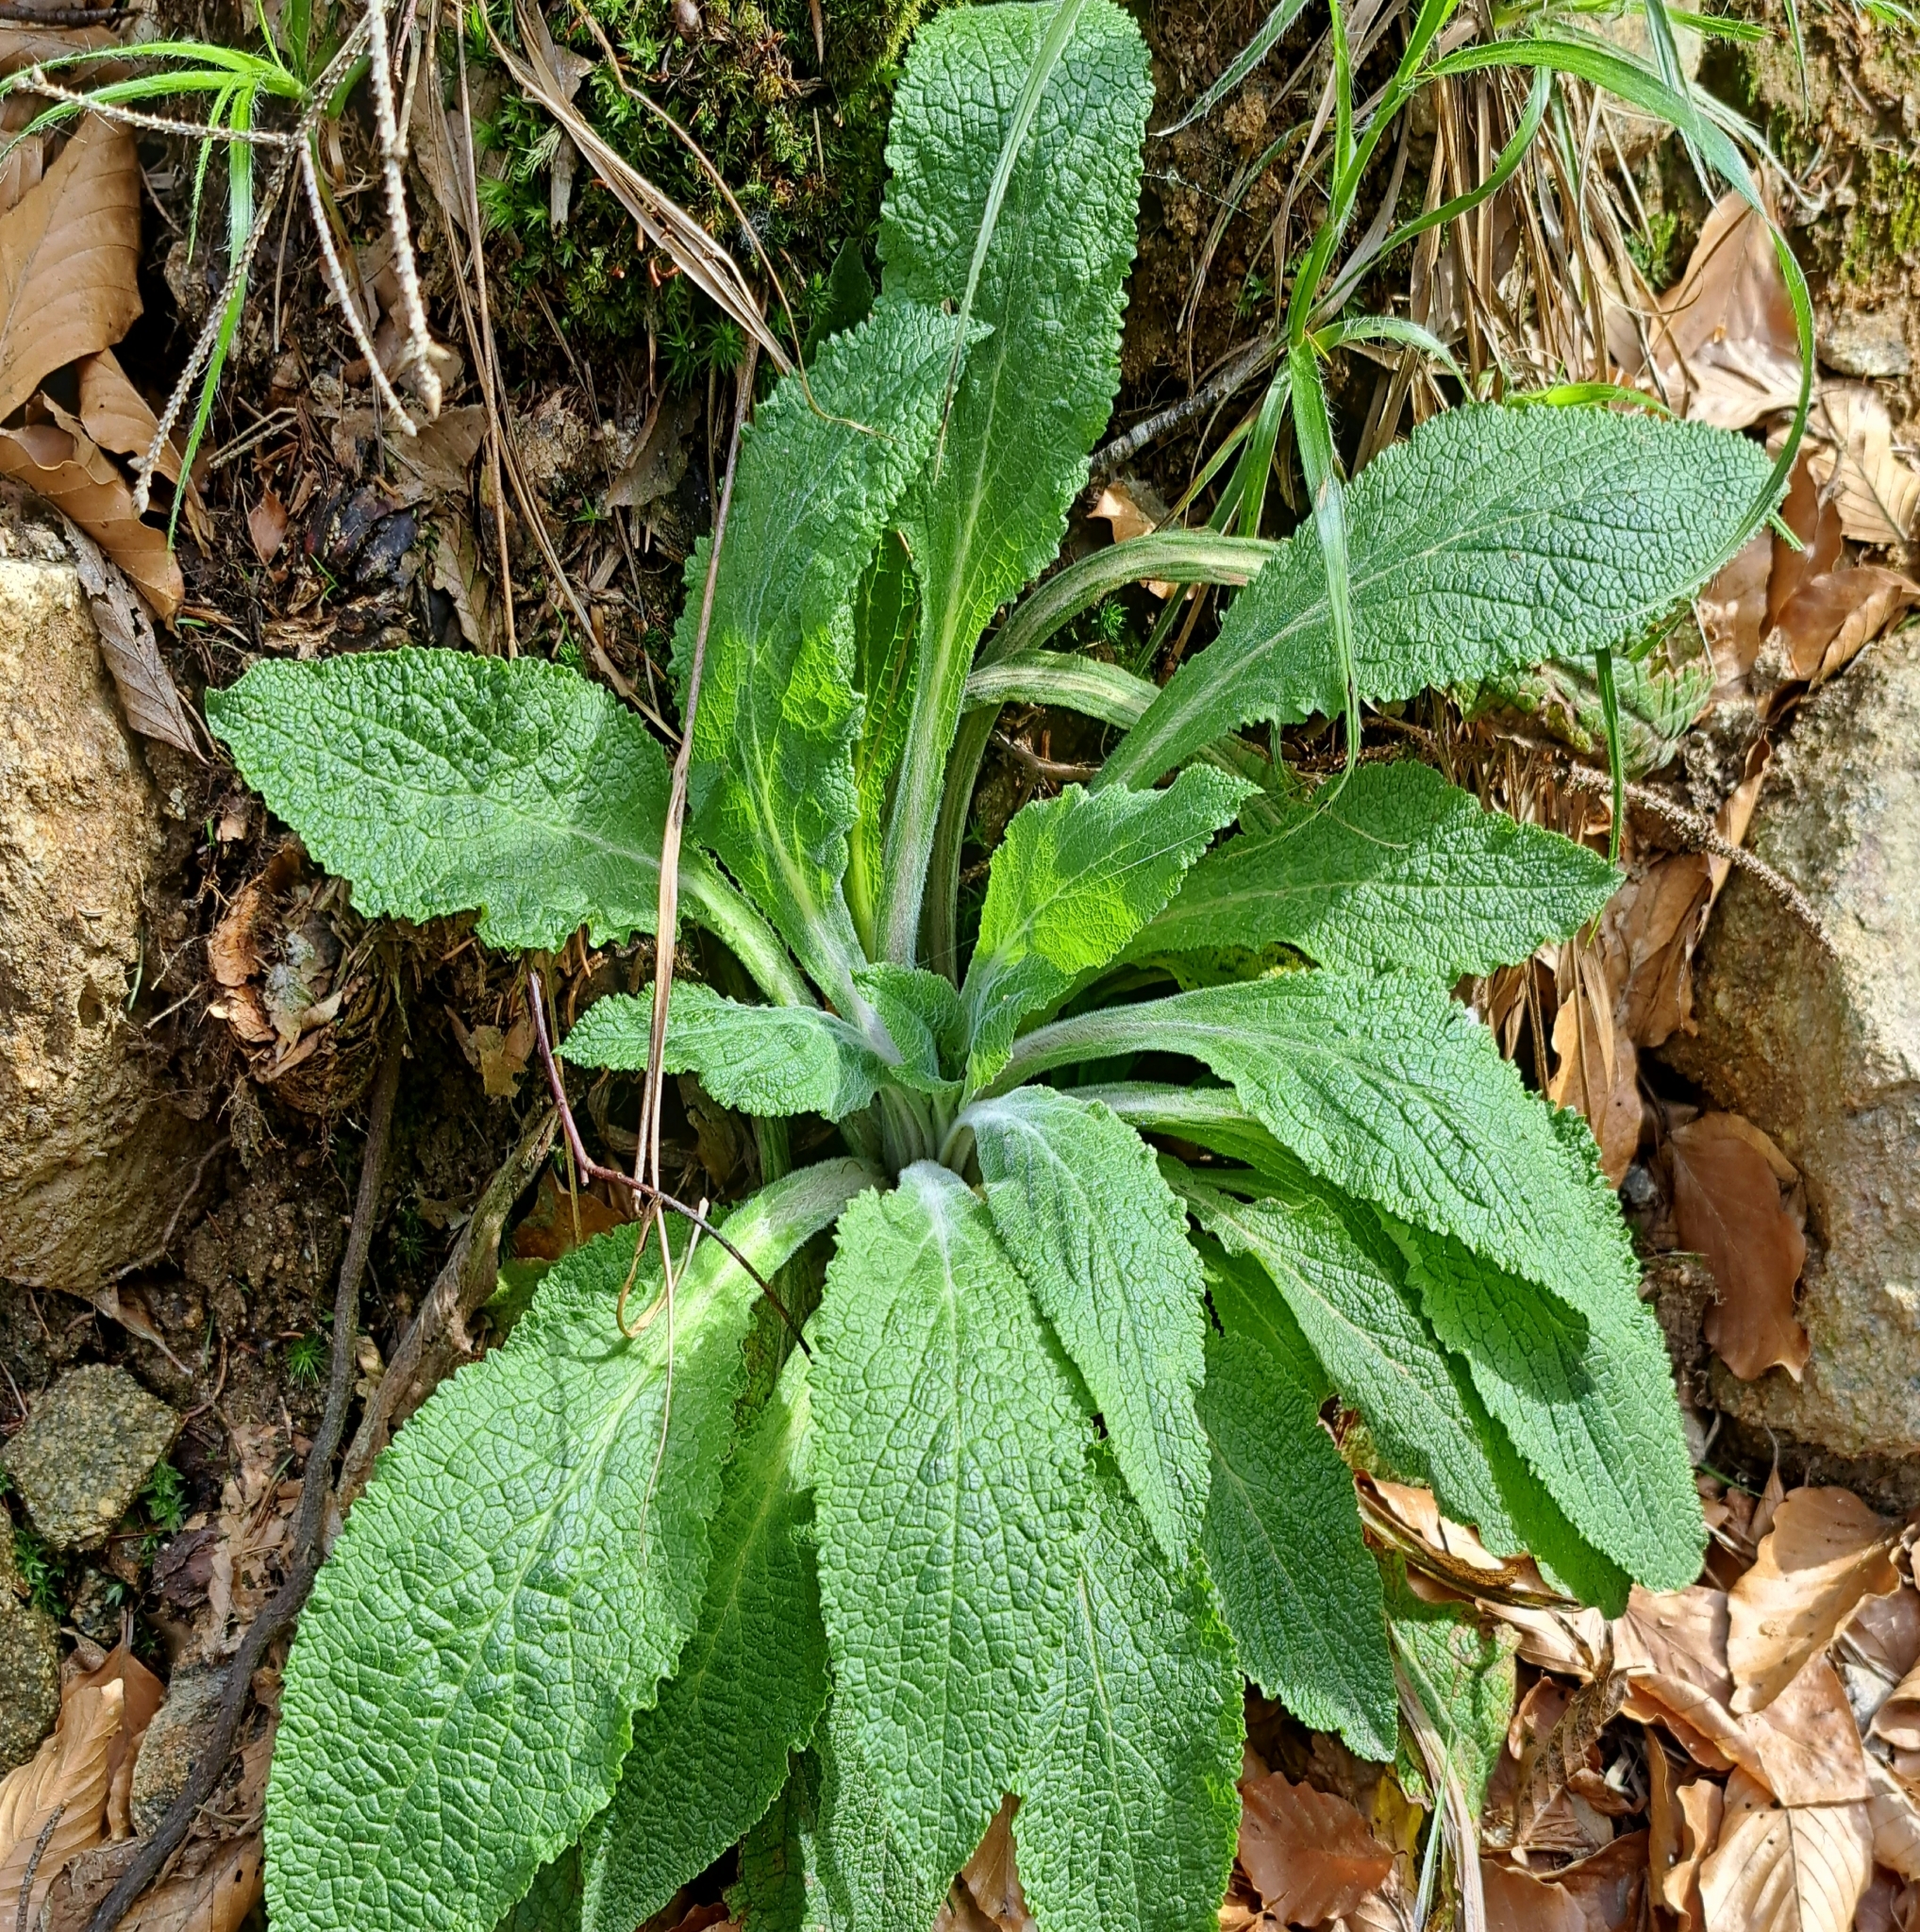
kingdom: Plantae
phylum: Tracheophyta
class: Magnoliopsida
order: Lamiales
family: Plantaginaceae
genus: Digitalis
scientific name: Digitalis purpurea
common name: Foxglove
